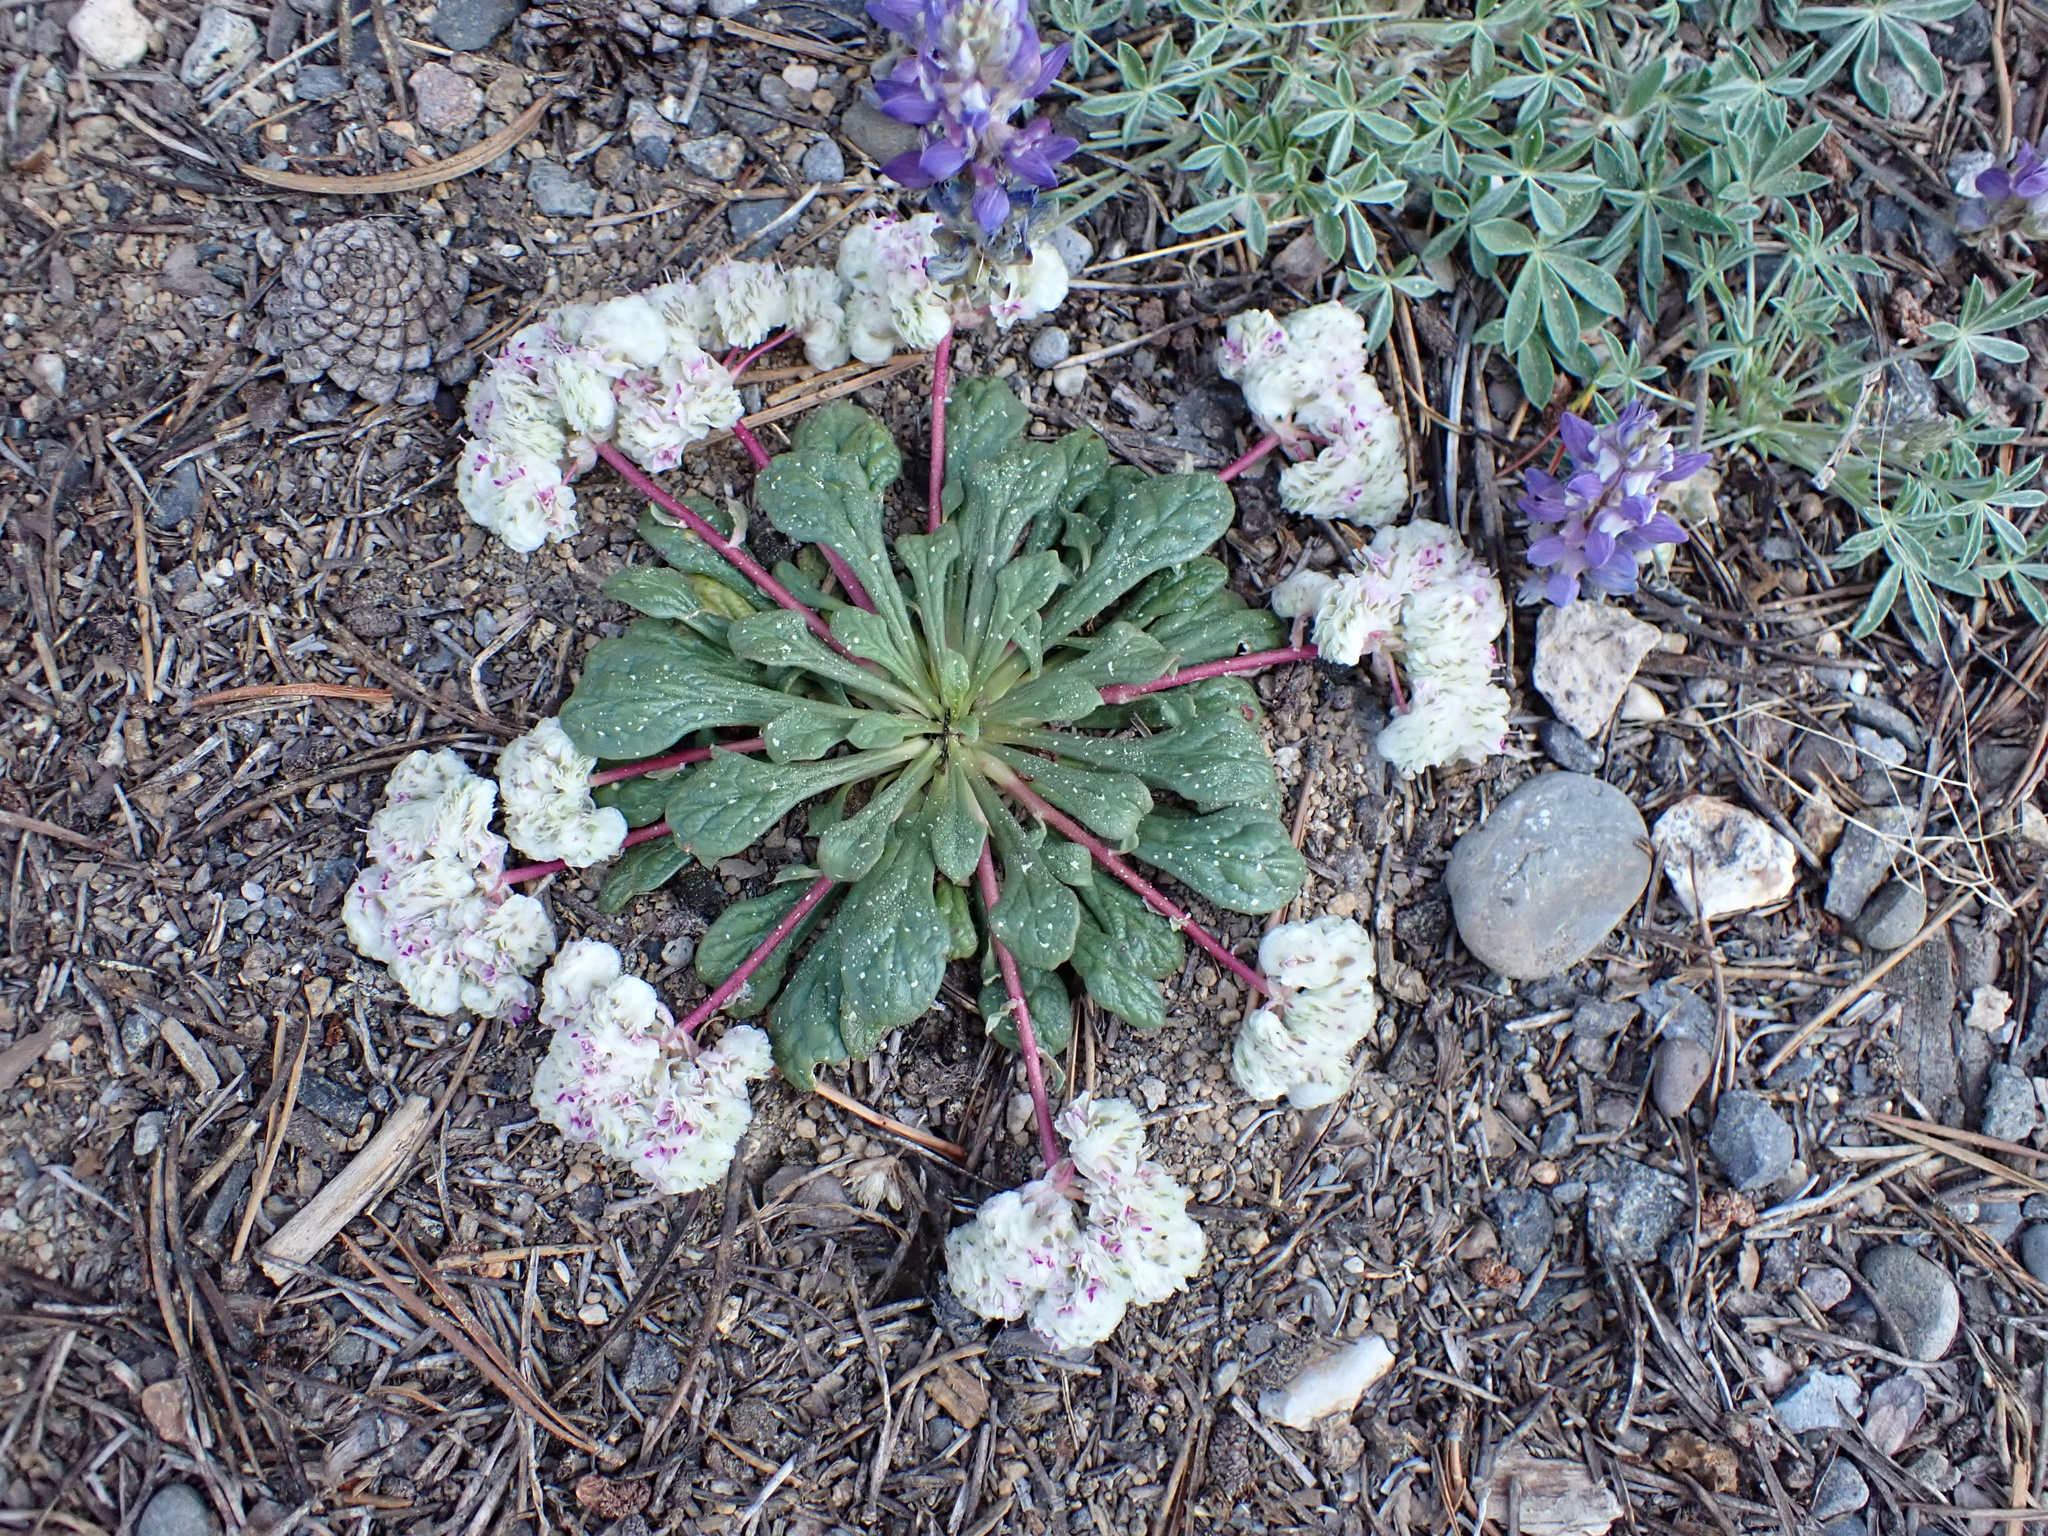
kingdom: Plantae
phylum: Tracheophyta
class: Magnoliopsida
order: Caryophyllales
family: Montiaceae
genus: Calyptridium
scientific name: Calyptridium monospermum
